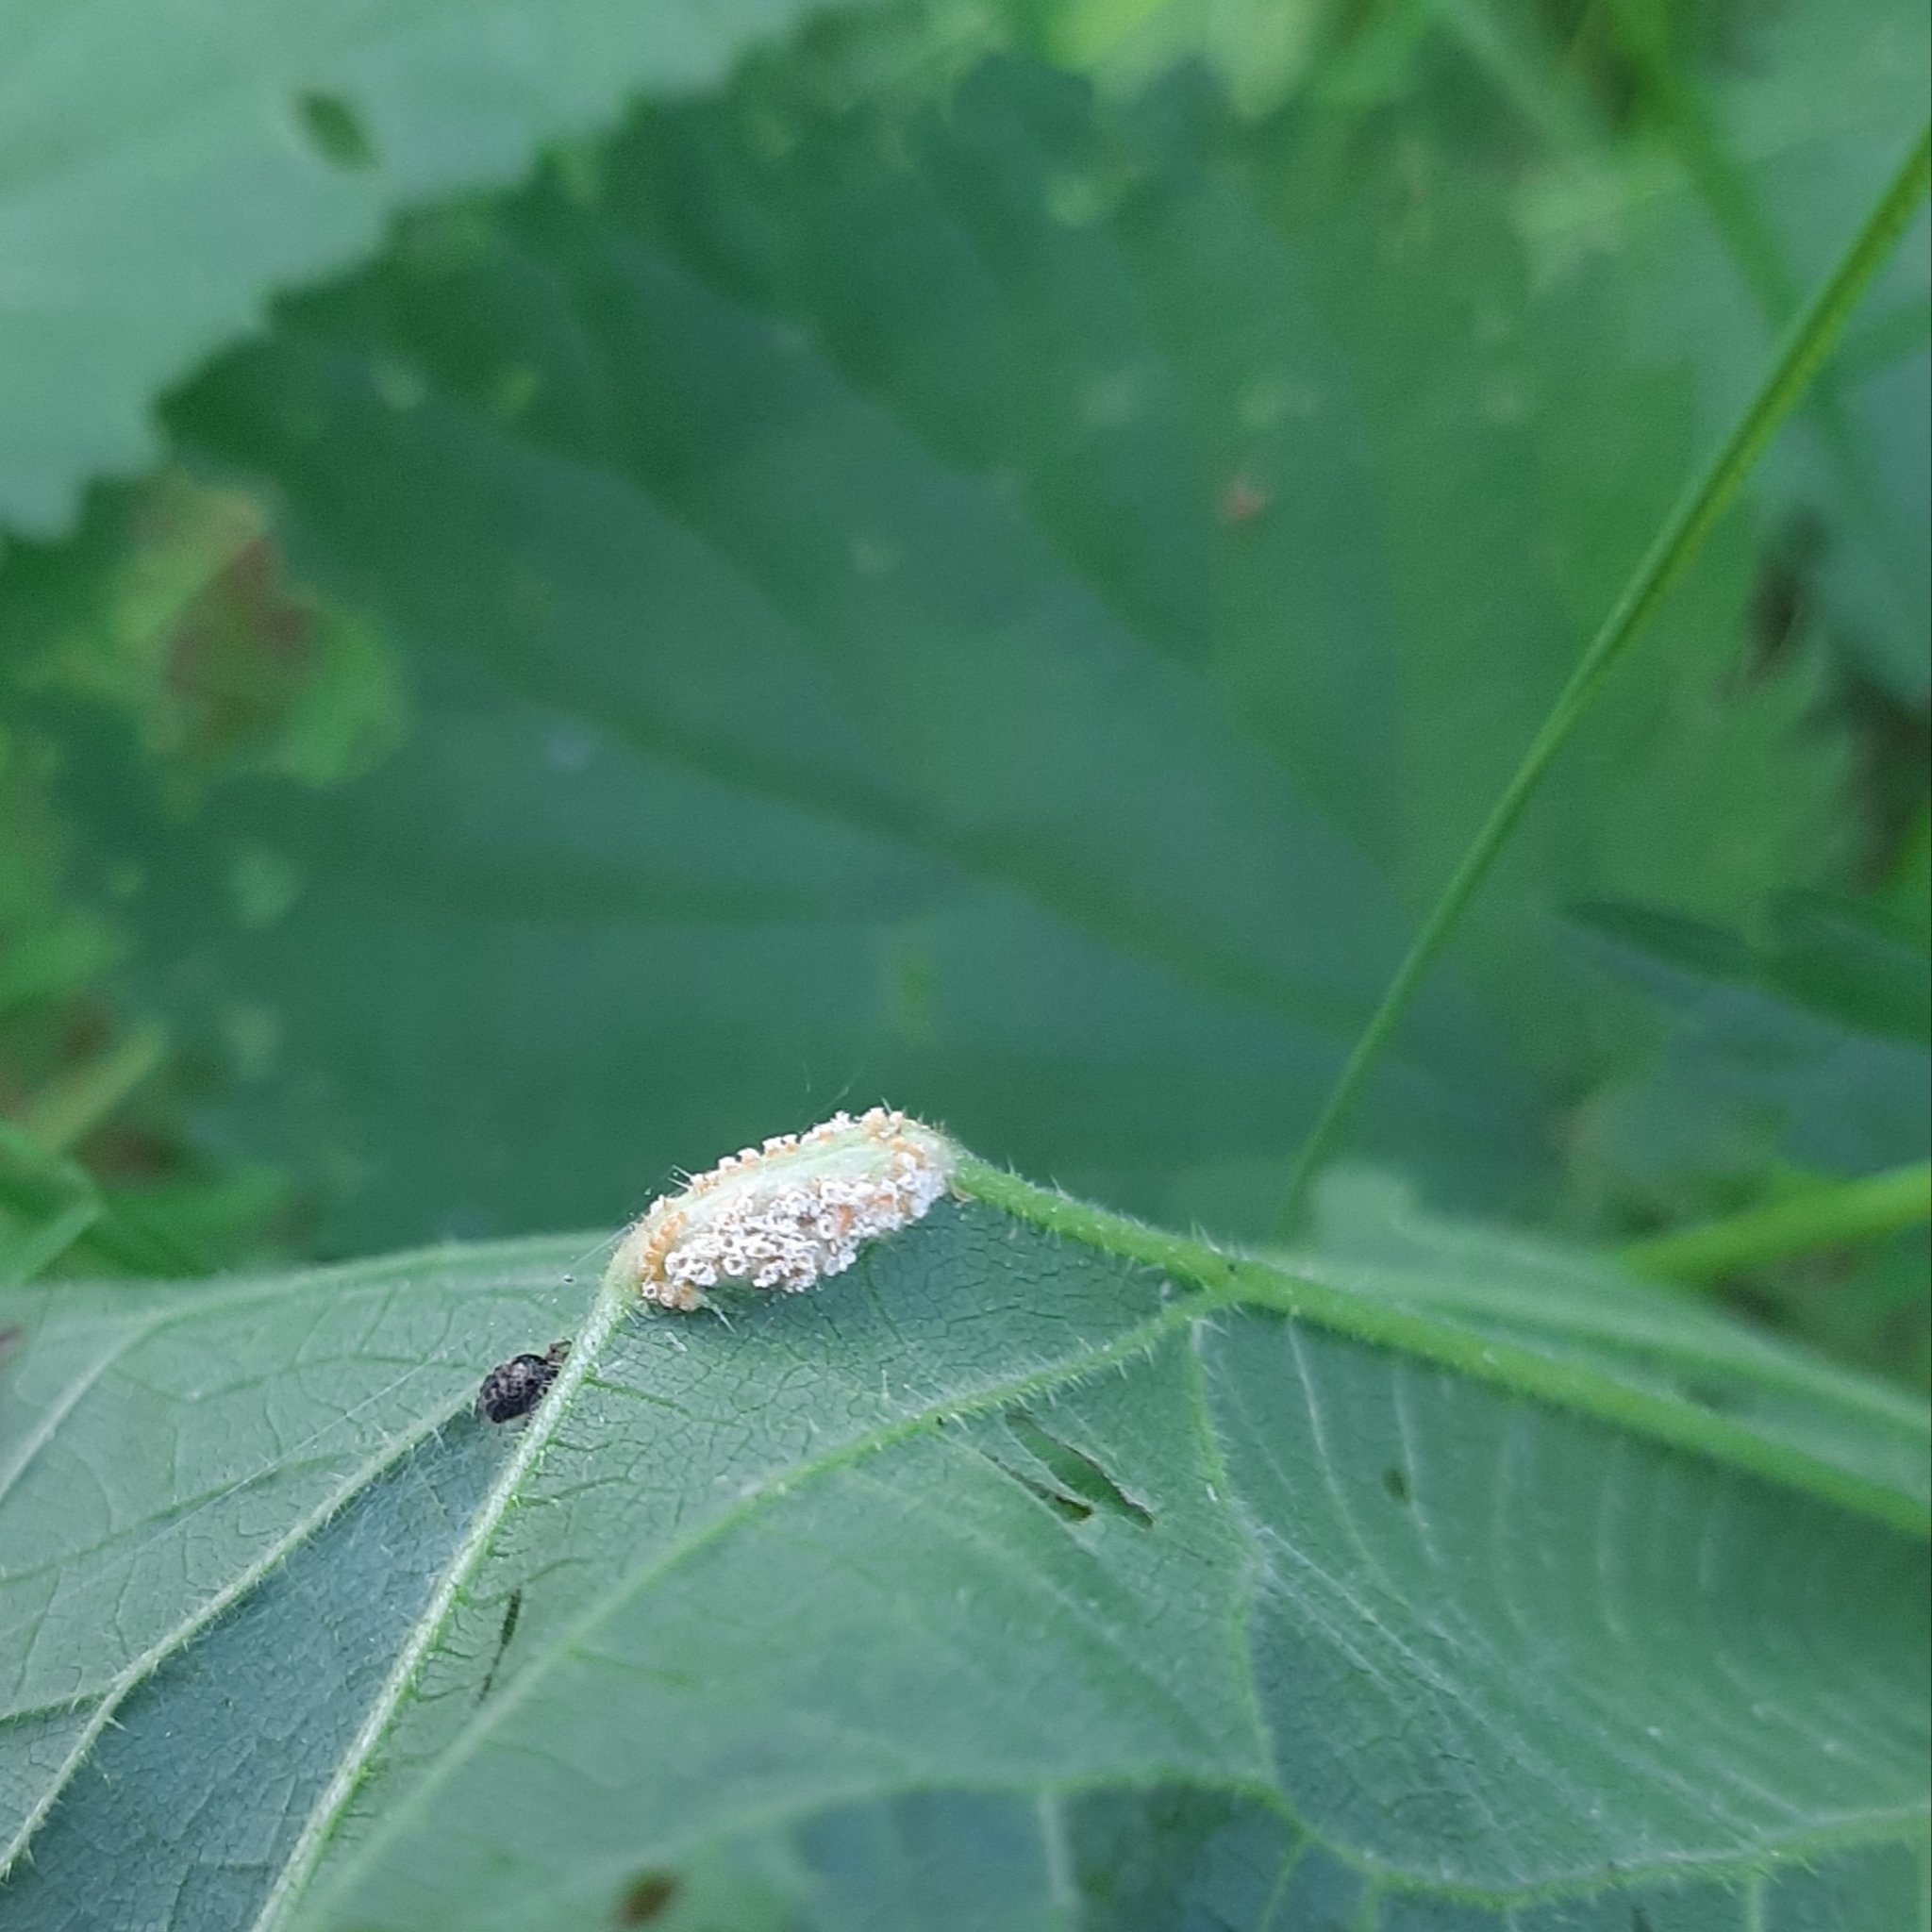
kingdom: Fungi
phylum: Basidiomycota
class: Pucciniomycetes
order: Pucciniales
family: Pucciniaceae
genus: Puccinia
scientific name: Puccinia urticata
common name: Nettle clustercup rust fungus
